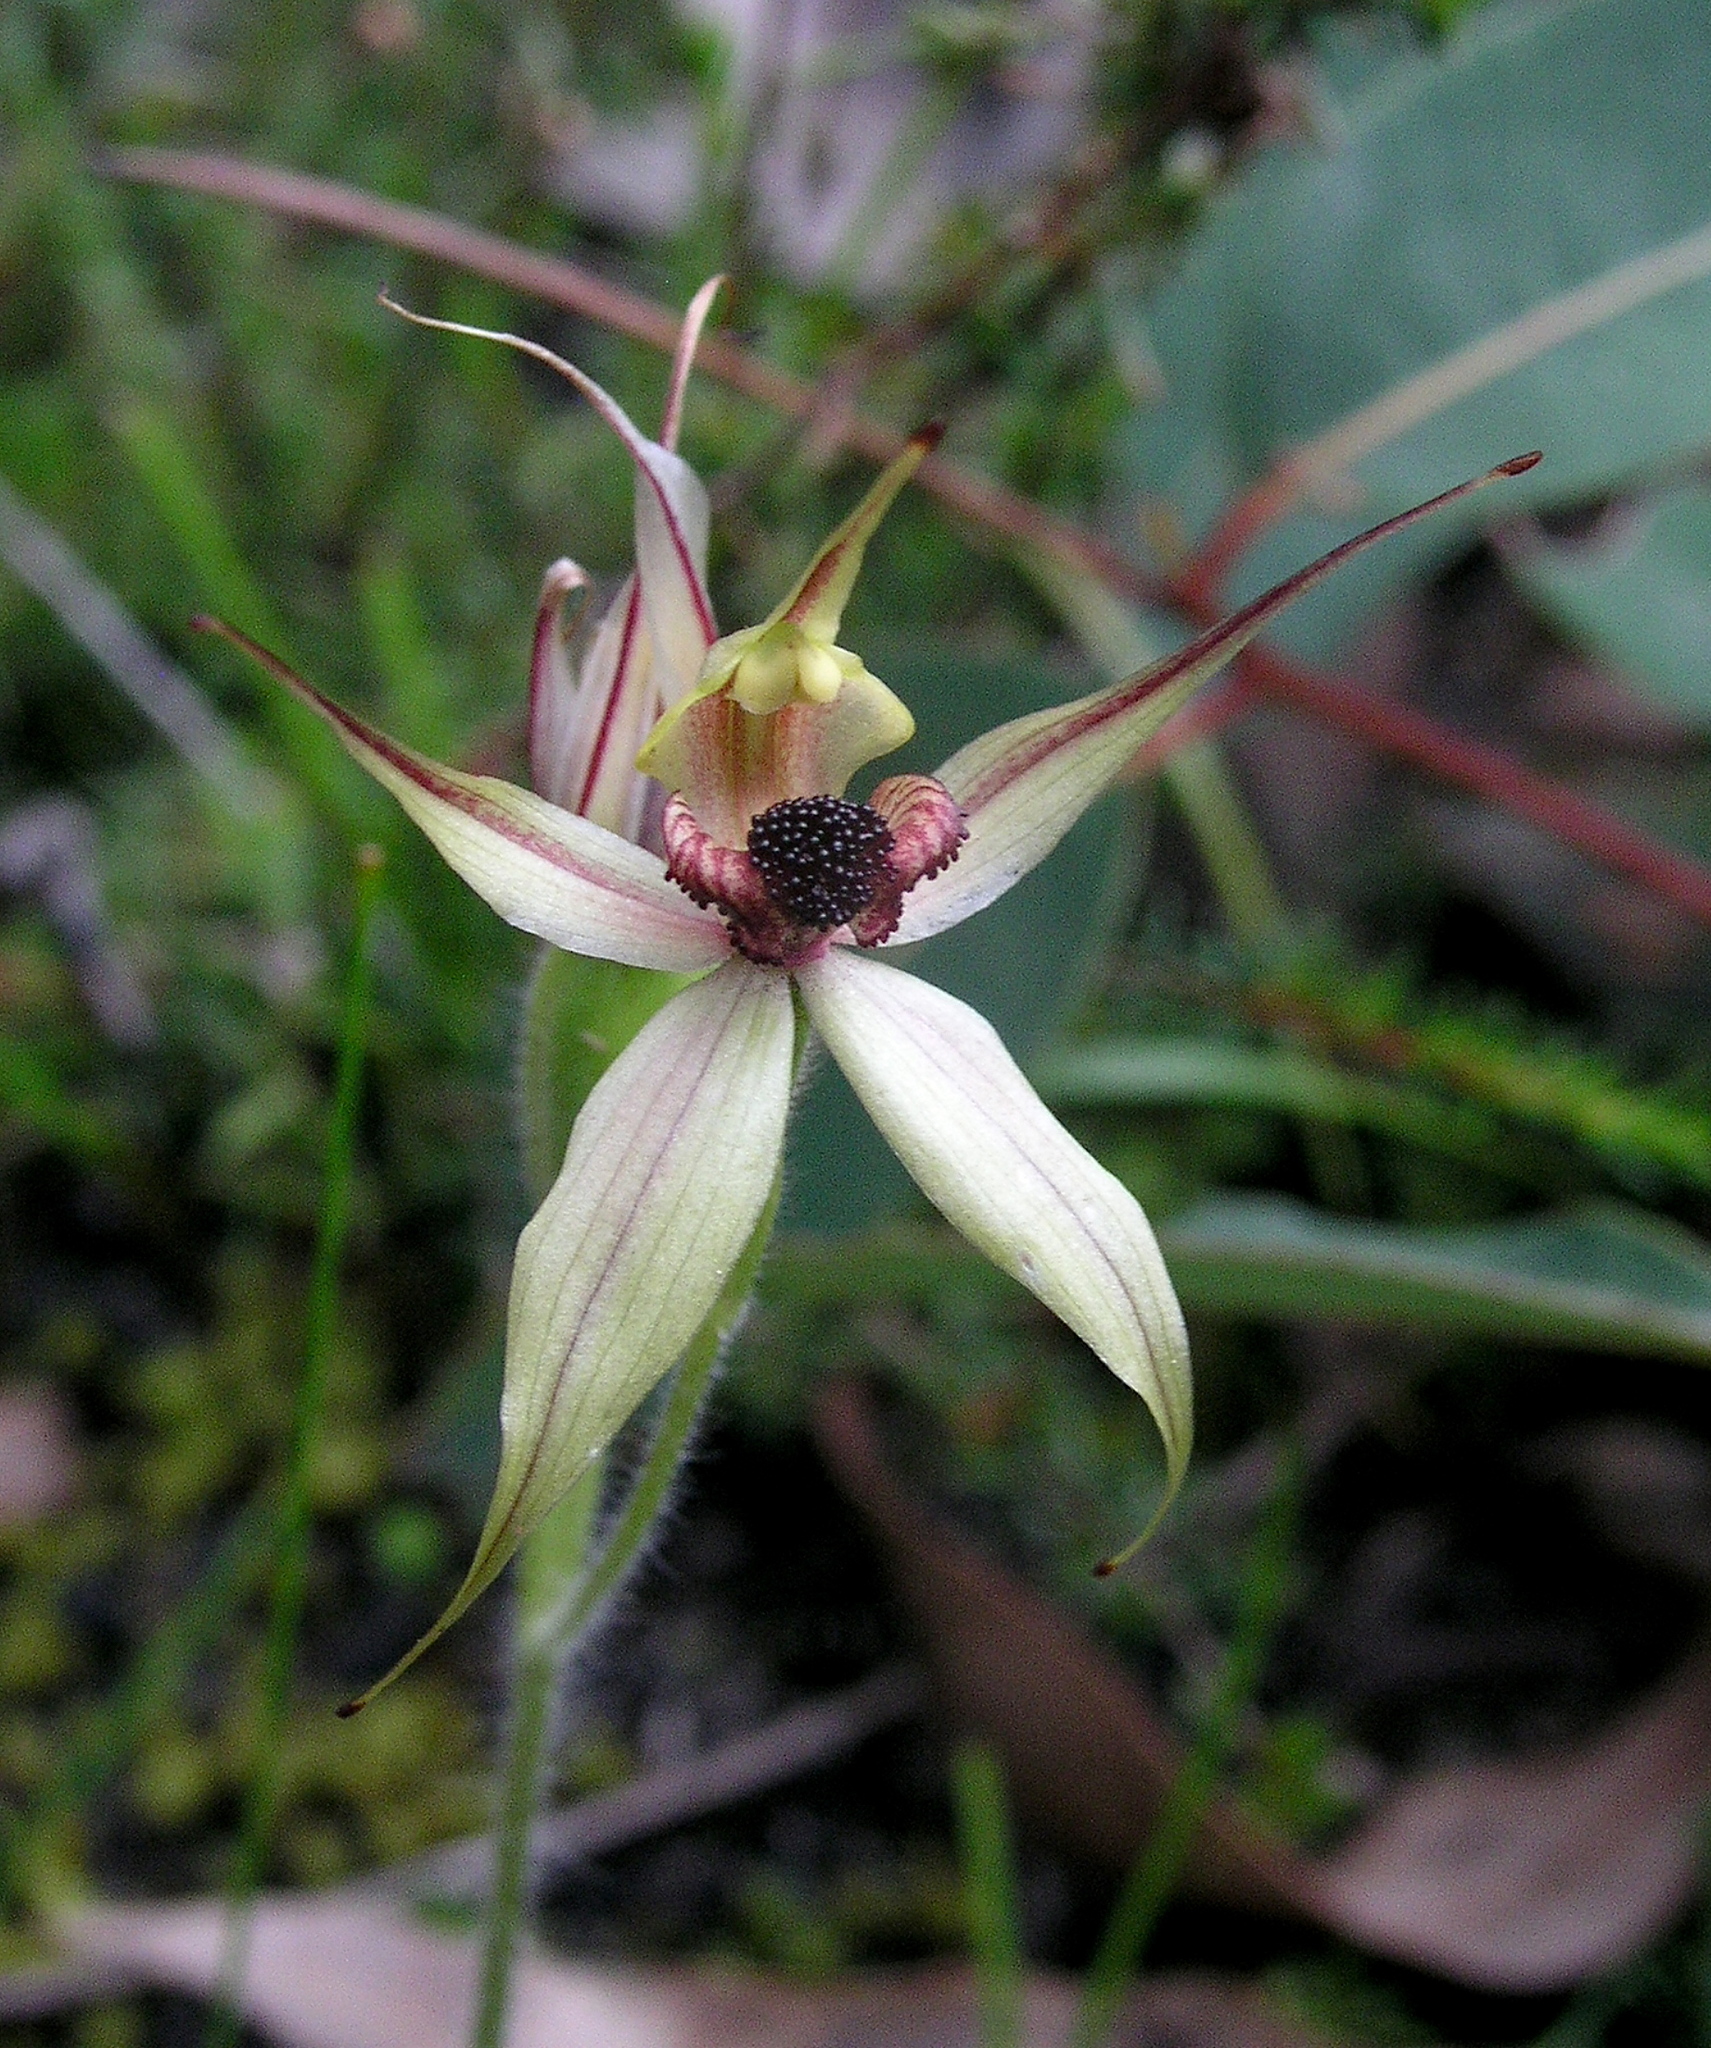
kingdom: Plantae
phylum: Tracheophyta
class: Liliopsida
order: Asparagales
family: Orchidaceae
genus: Caladenia
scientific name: Caladenia macrostylis
